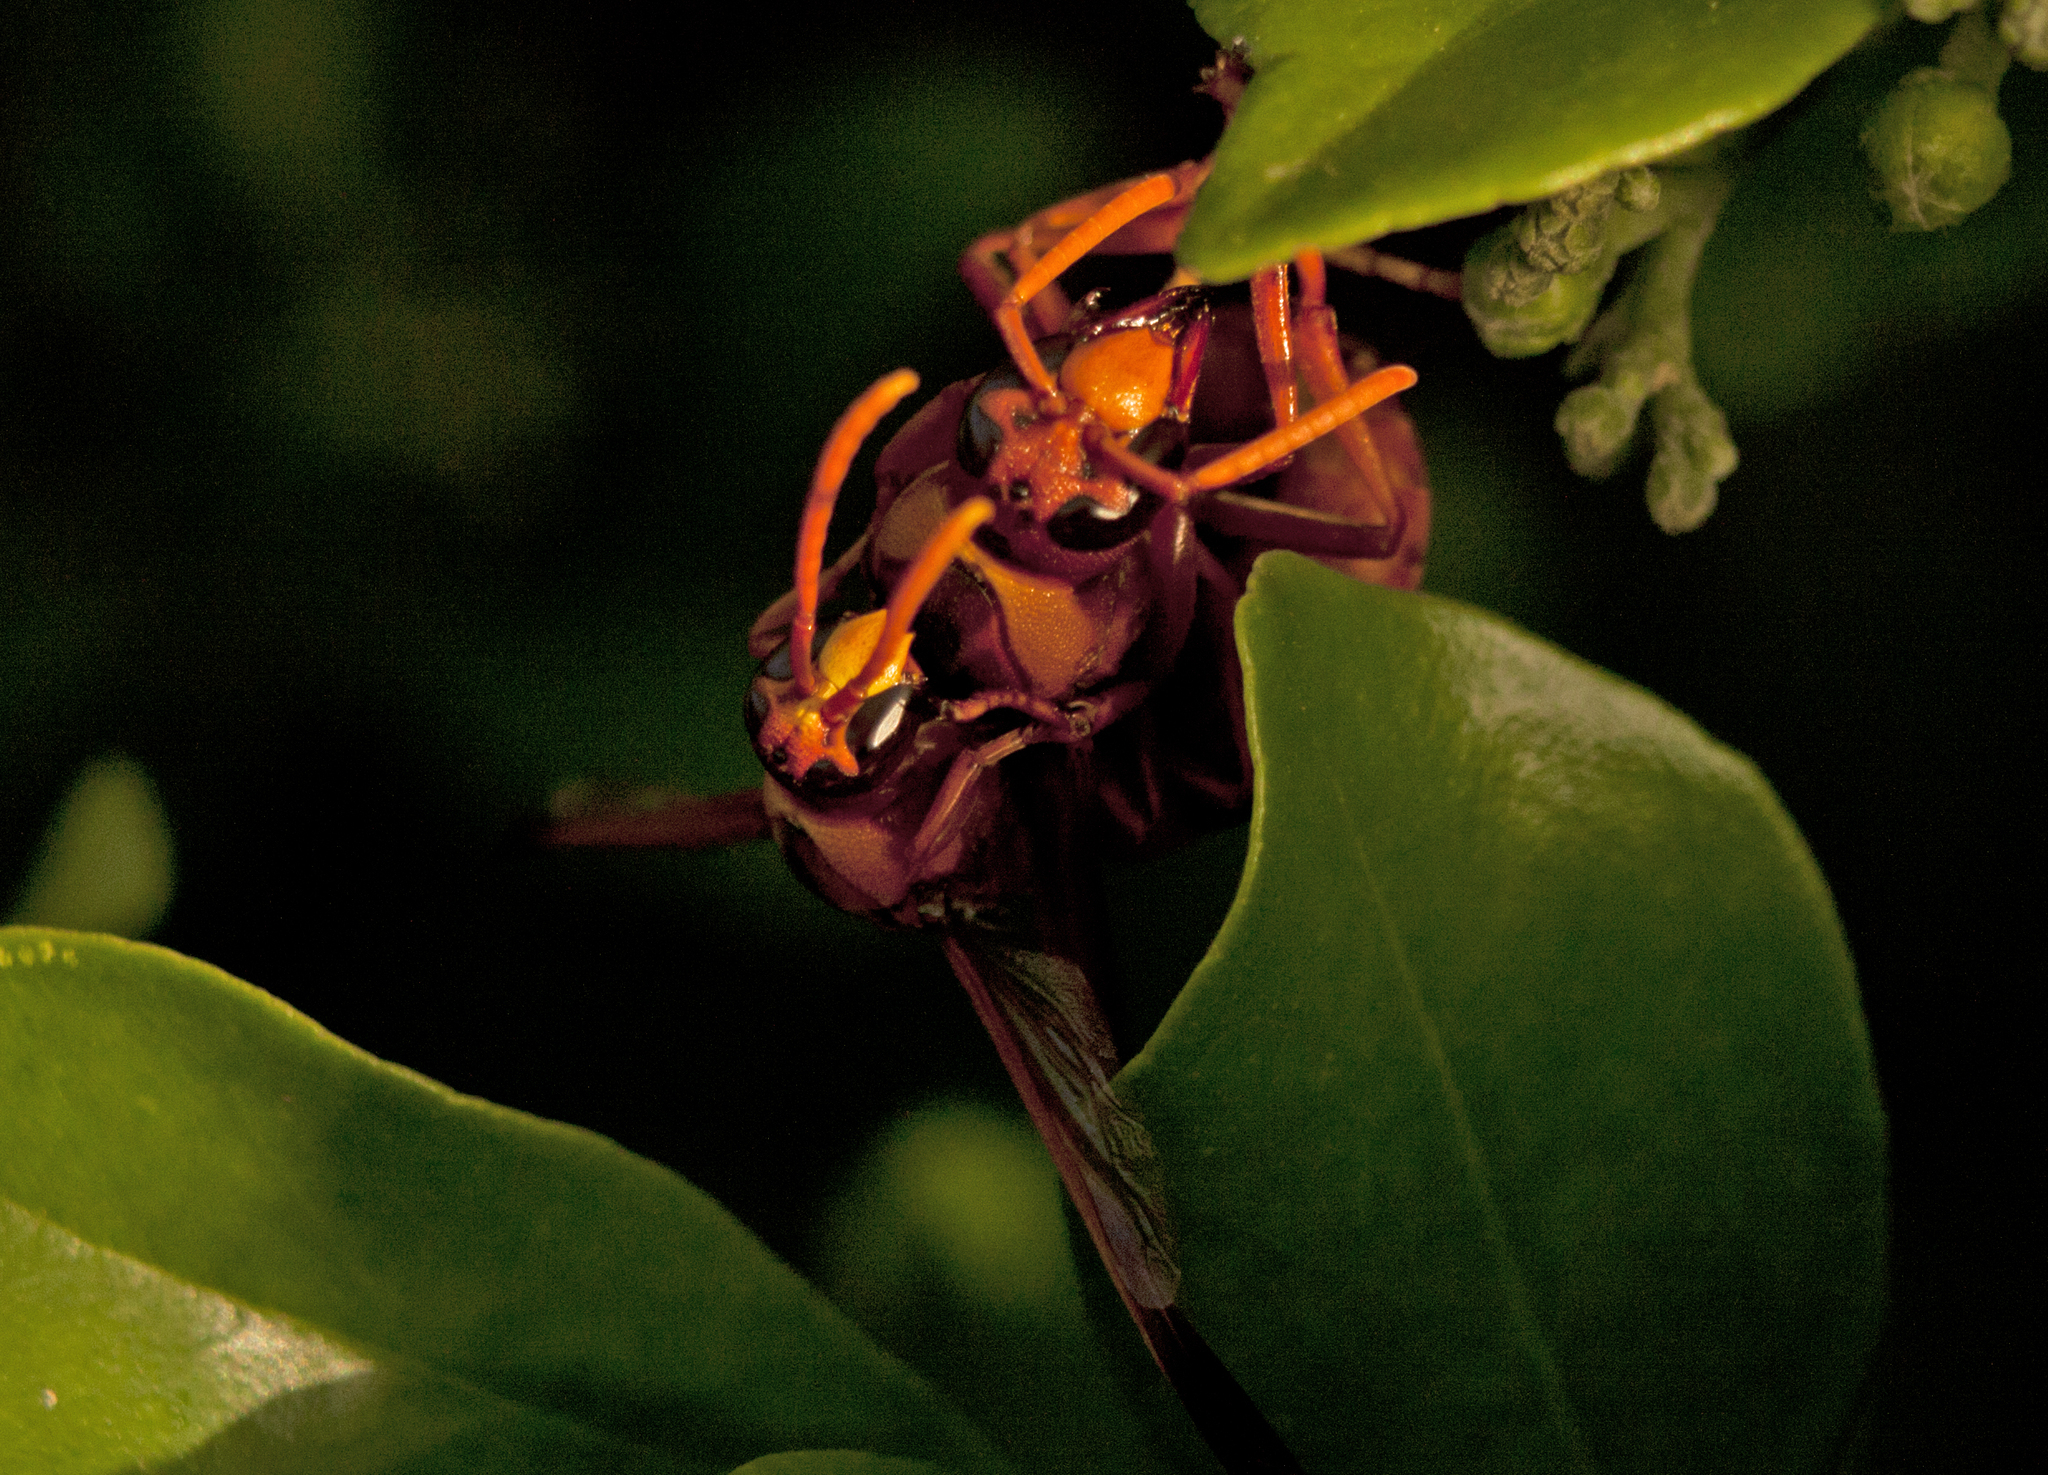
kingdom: Animalia
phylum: Arthropoda
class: Insecta
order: Hymenoptera
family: Eumenidae
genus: Pseudabispa
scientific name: Pseudabispa ephippioides
